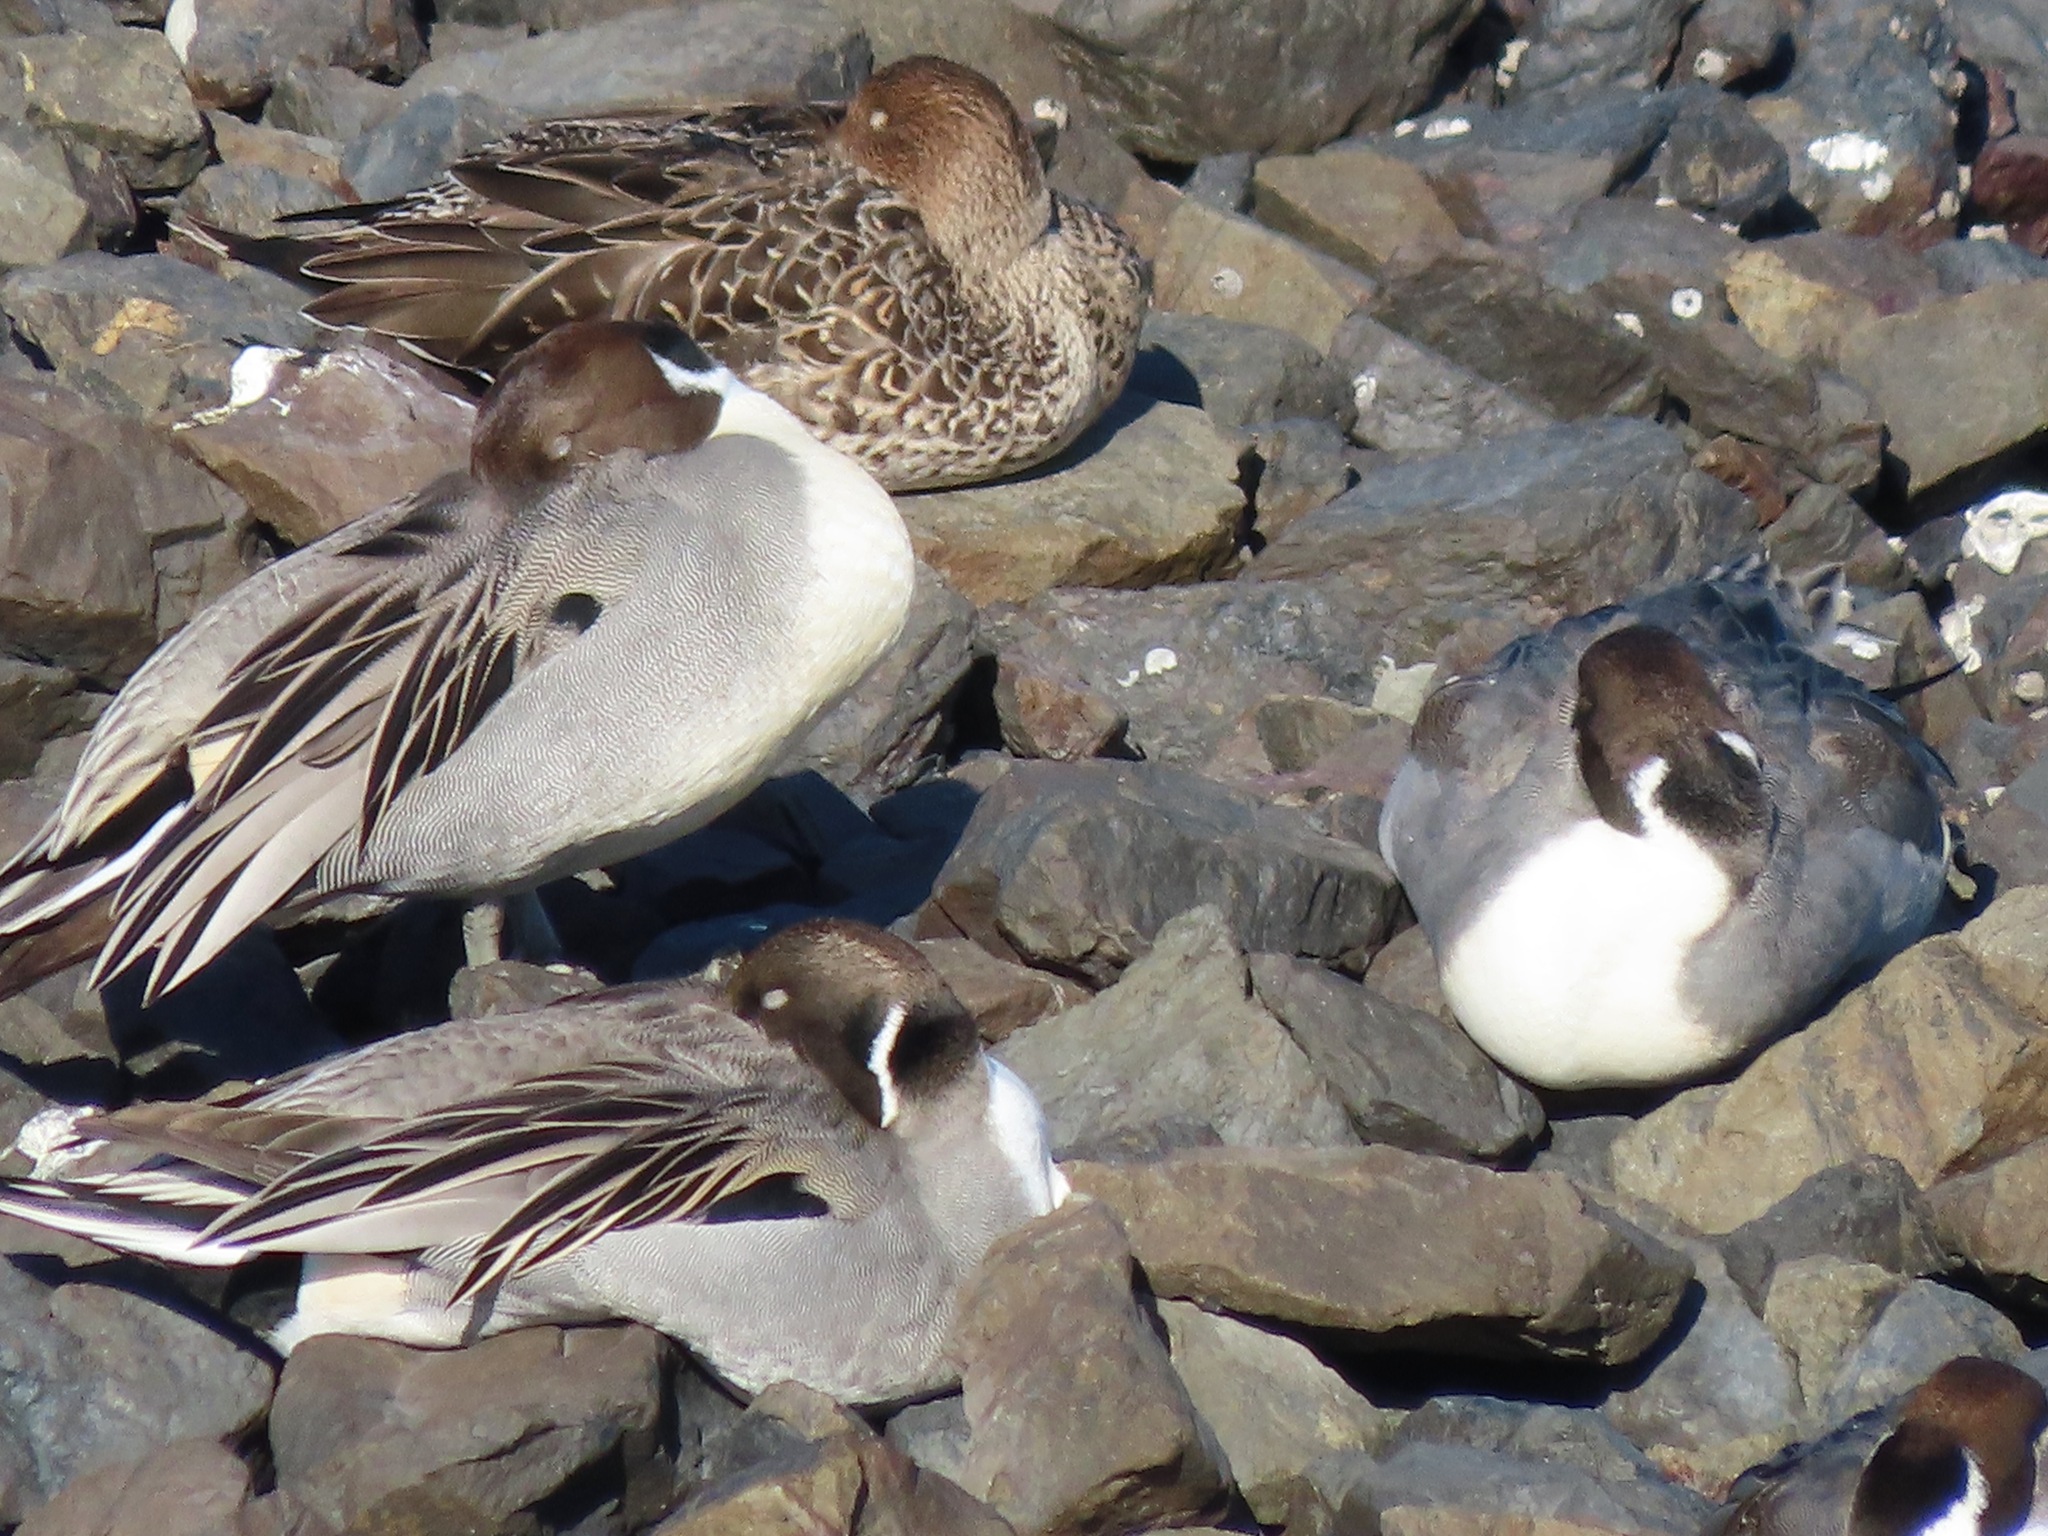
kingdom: Animalia
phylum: Chordata
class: Aves
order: Anseriformes
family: Anatidae
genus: Anas
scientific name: Anas acuta
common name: Northern pintail
